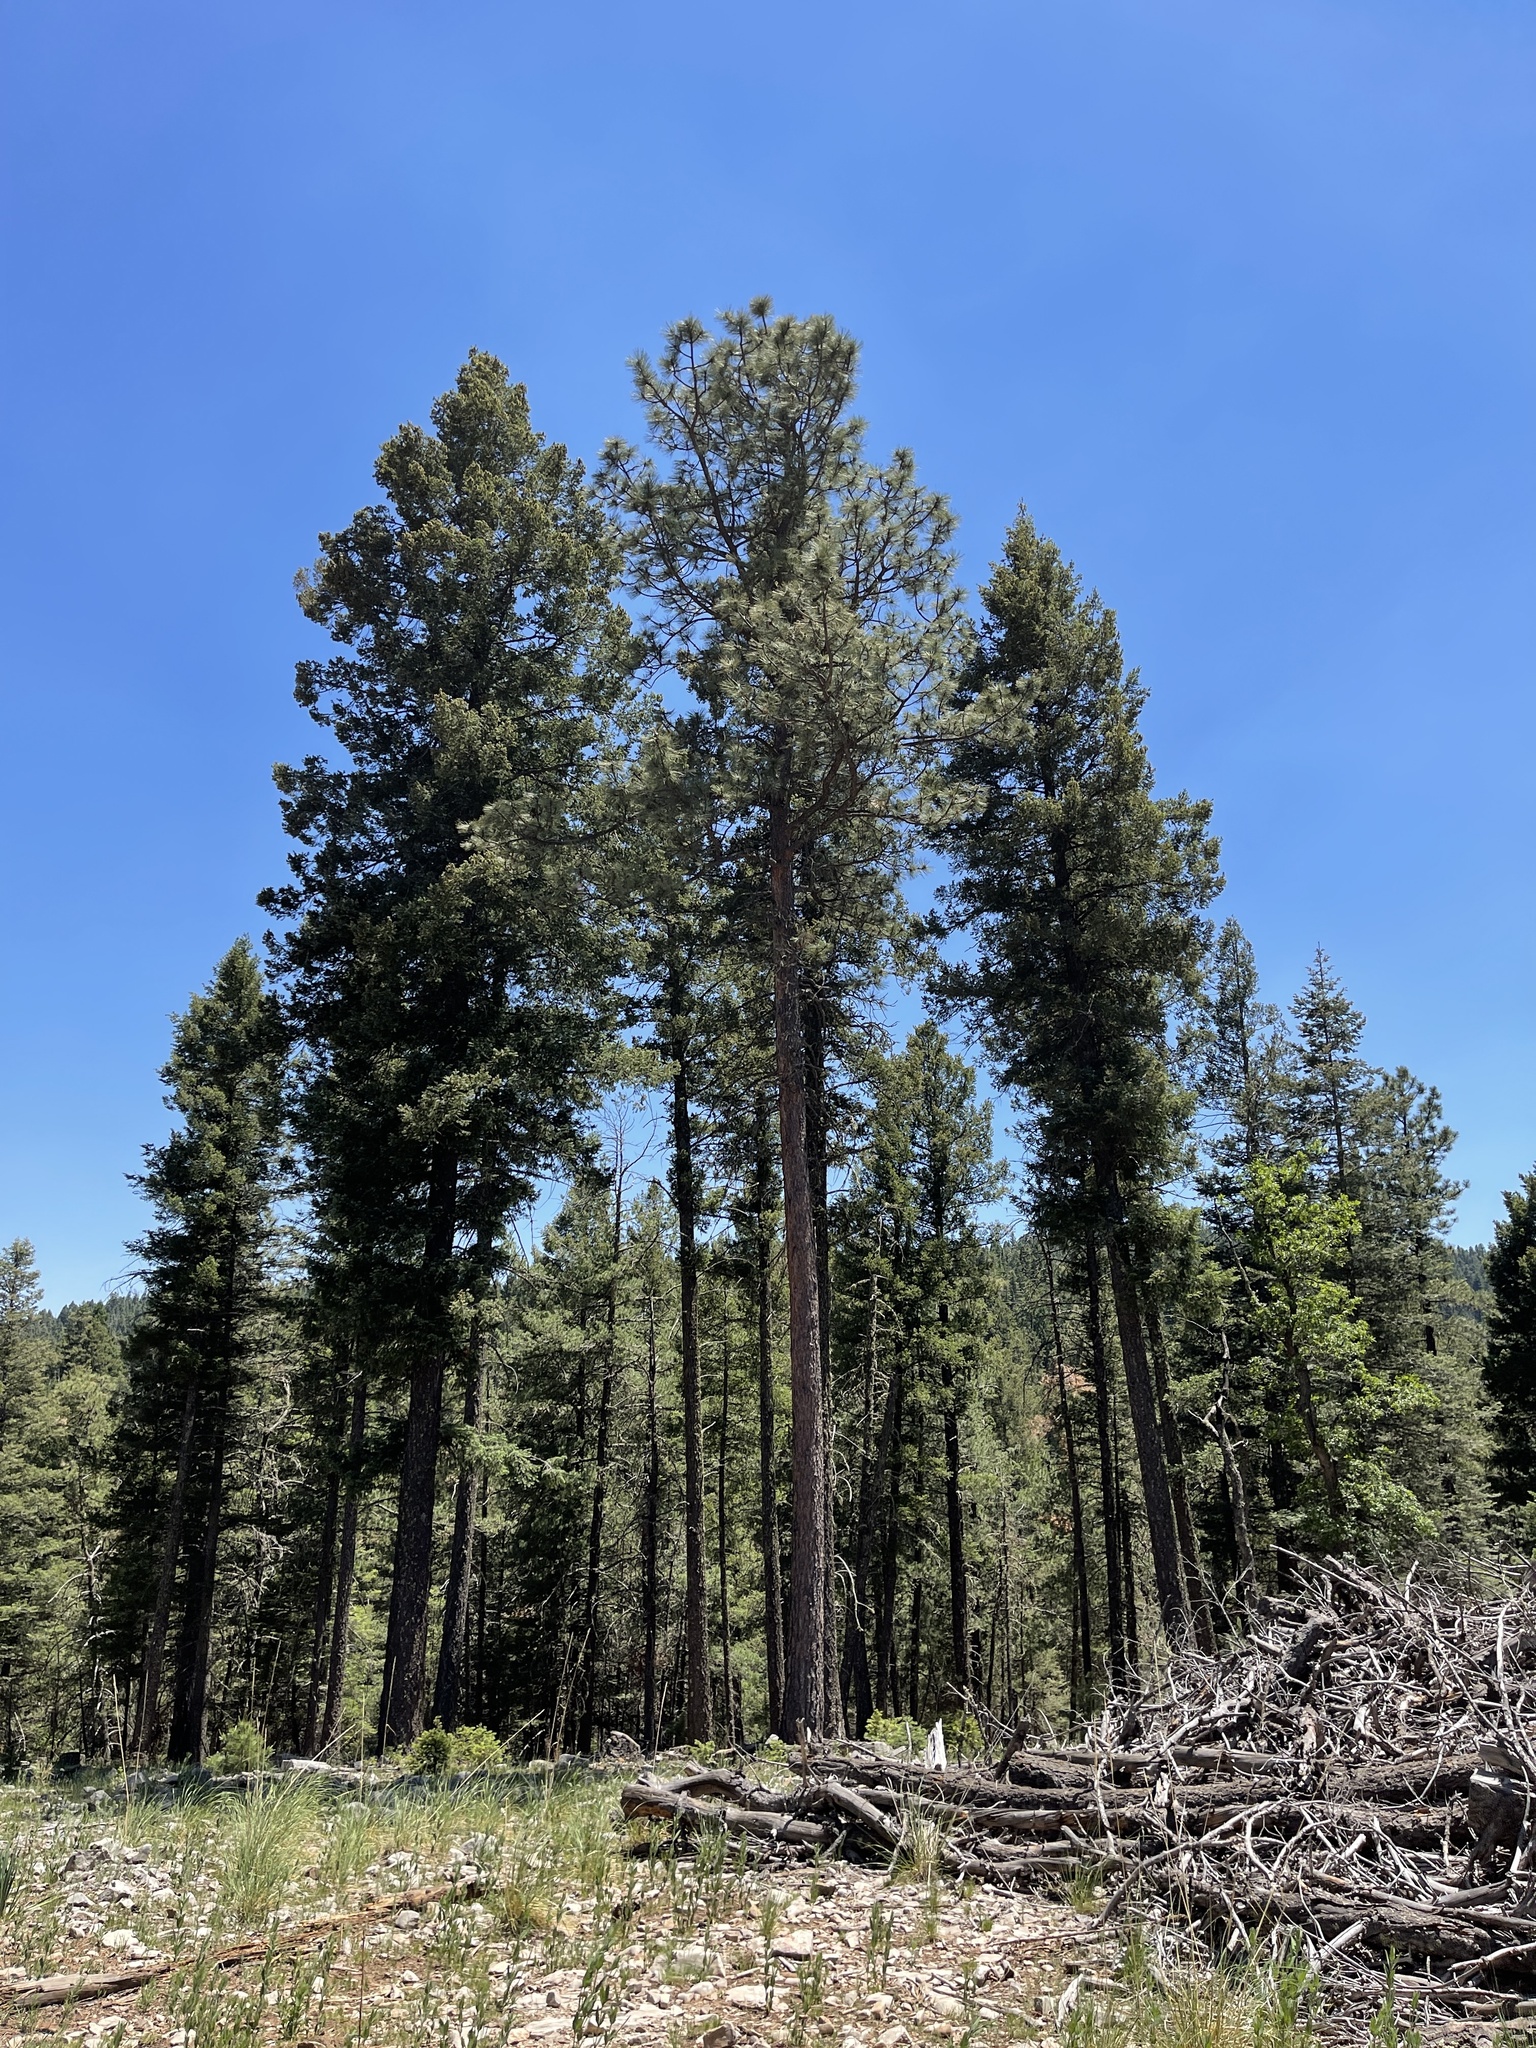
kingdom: Plantae
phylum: Tracheophyta
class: Pinopsida
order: Pinales
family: Pinaceae
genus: Pinus
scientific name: Pinus ponderosa
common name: Western yellow-pine
